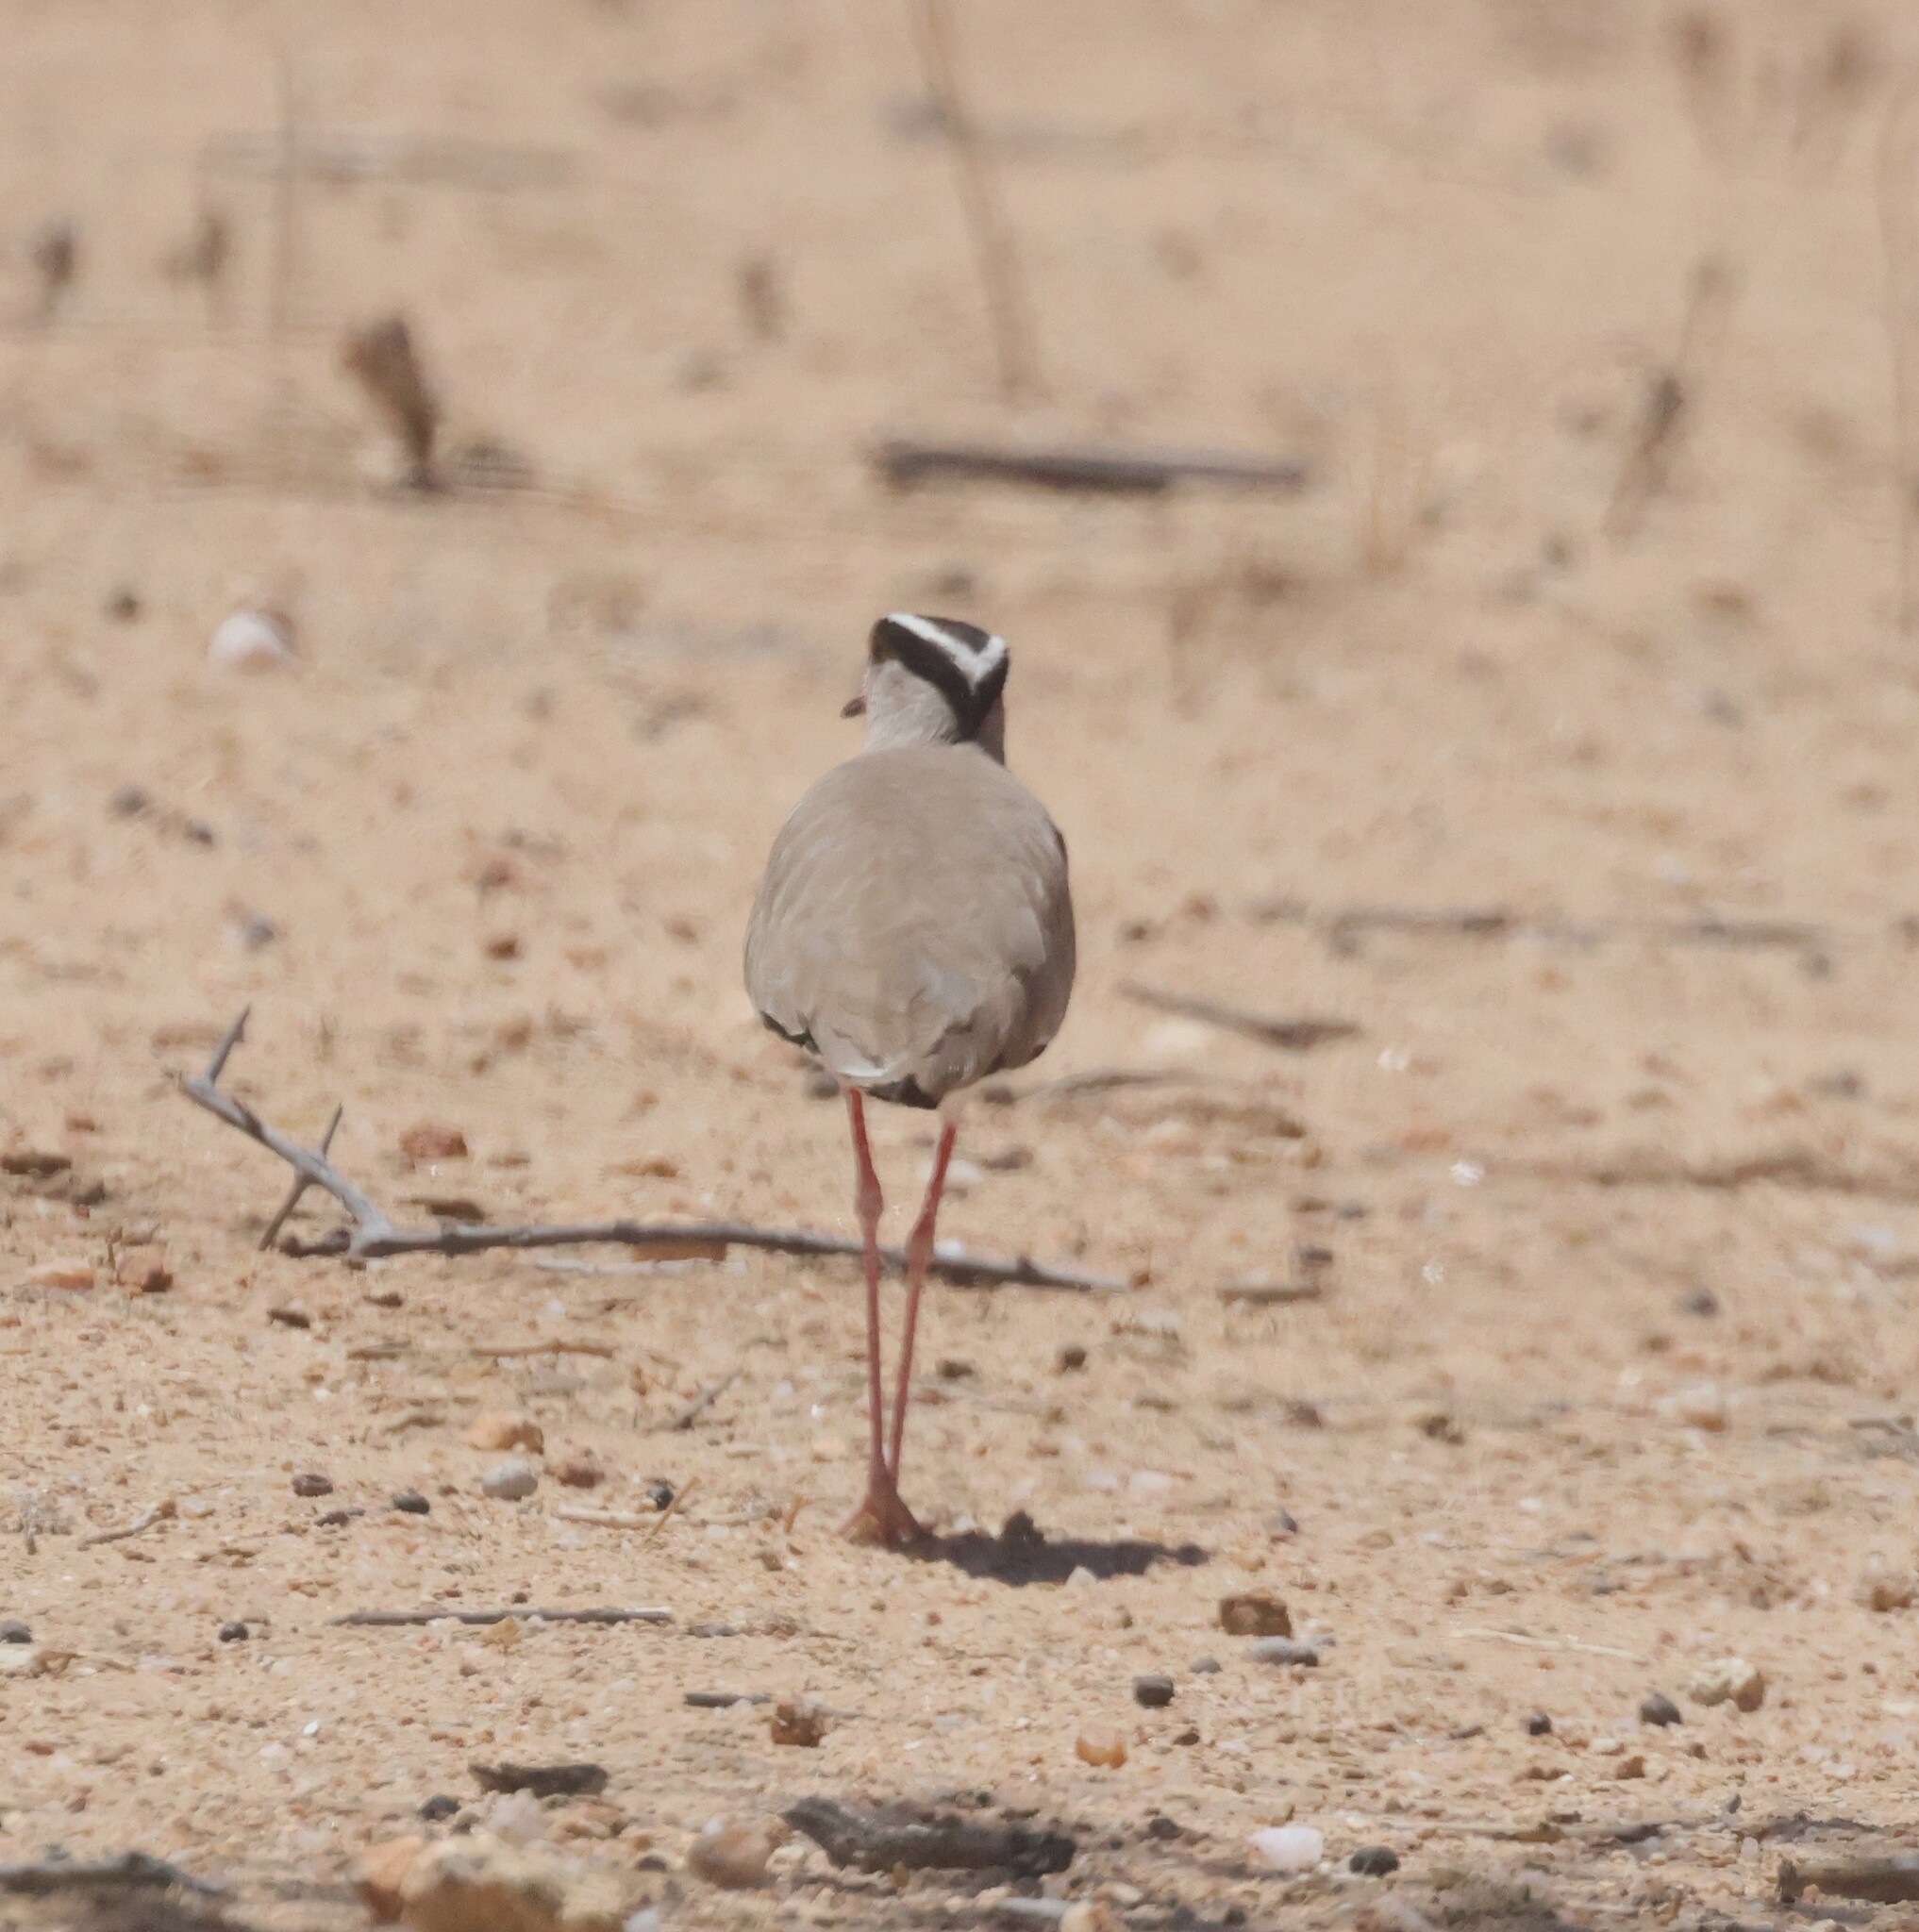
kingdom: Animalia
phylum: Chordata
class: Aves
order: Charadriiformes
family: Charadriidae
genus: Vanellus
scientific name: Vanellus coronatus
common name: Crowned lapwing
